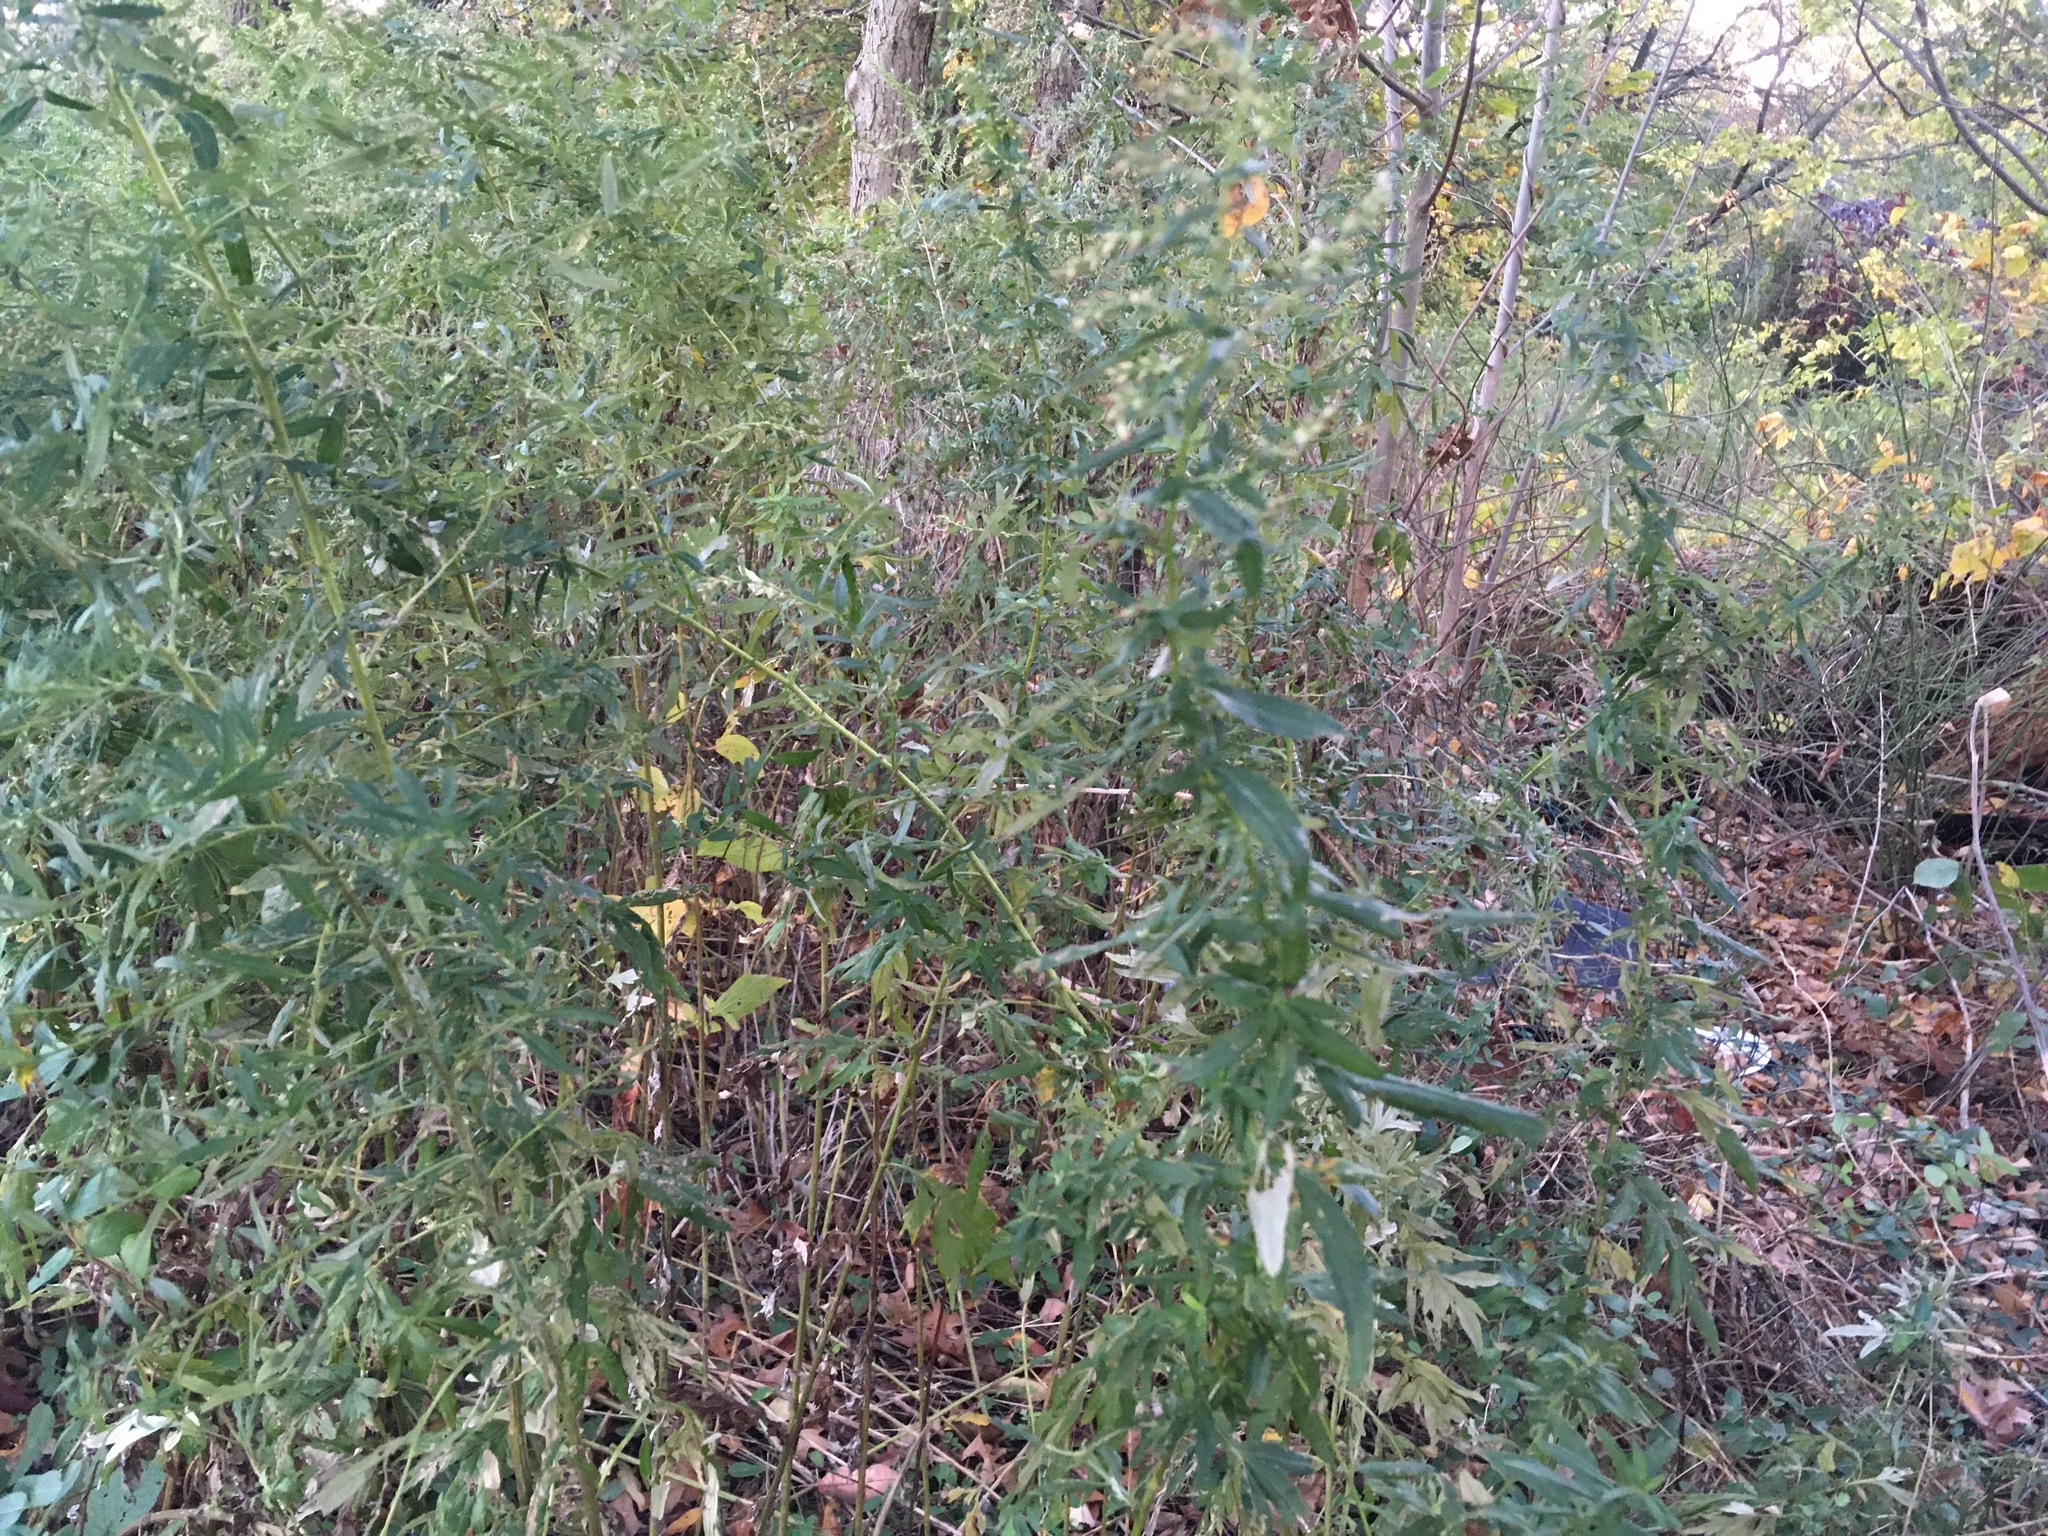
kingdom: Plantae
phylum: Tracheophyta
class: Magnoliopsida
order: Asterales
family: Asteraceae
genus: Artemisia
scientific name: Artemisia vulgaris
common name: Mugwort
